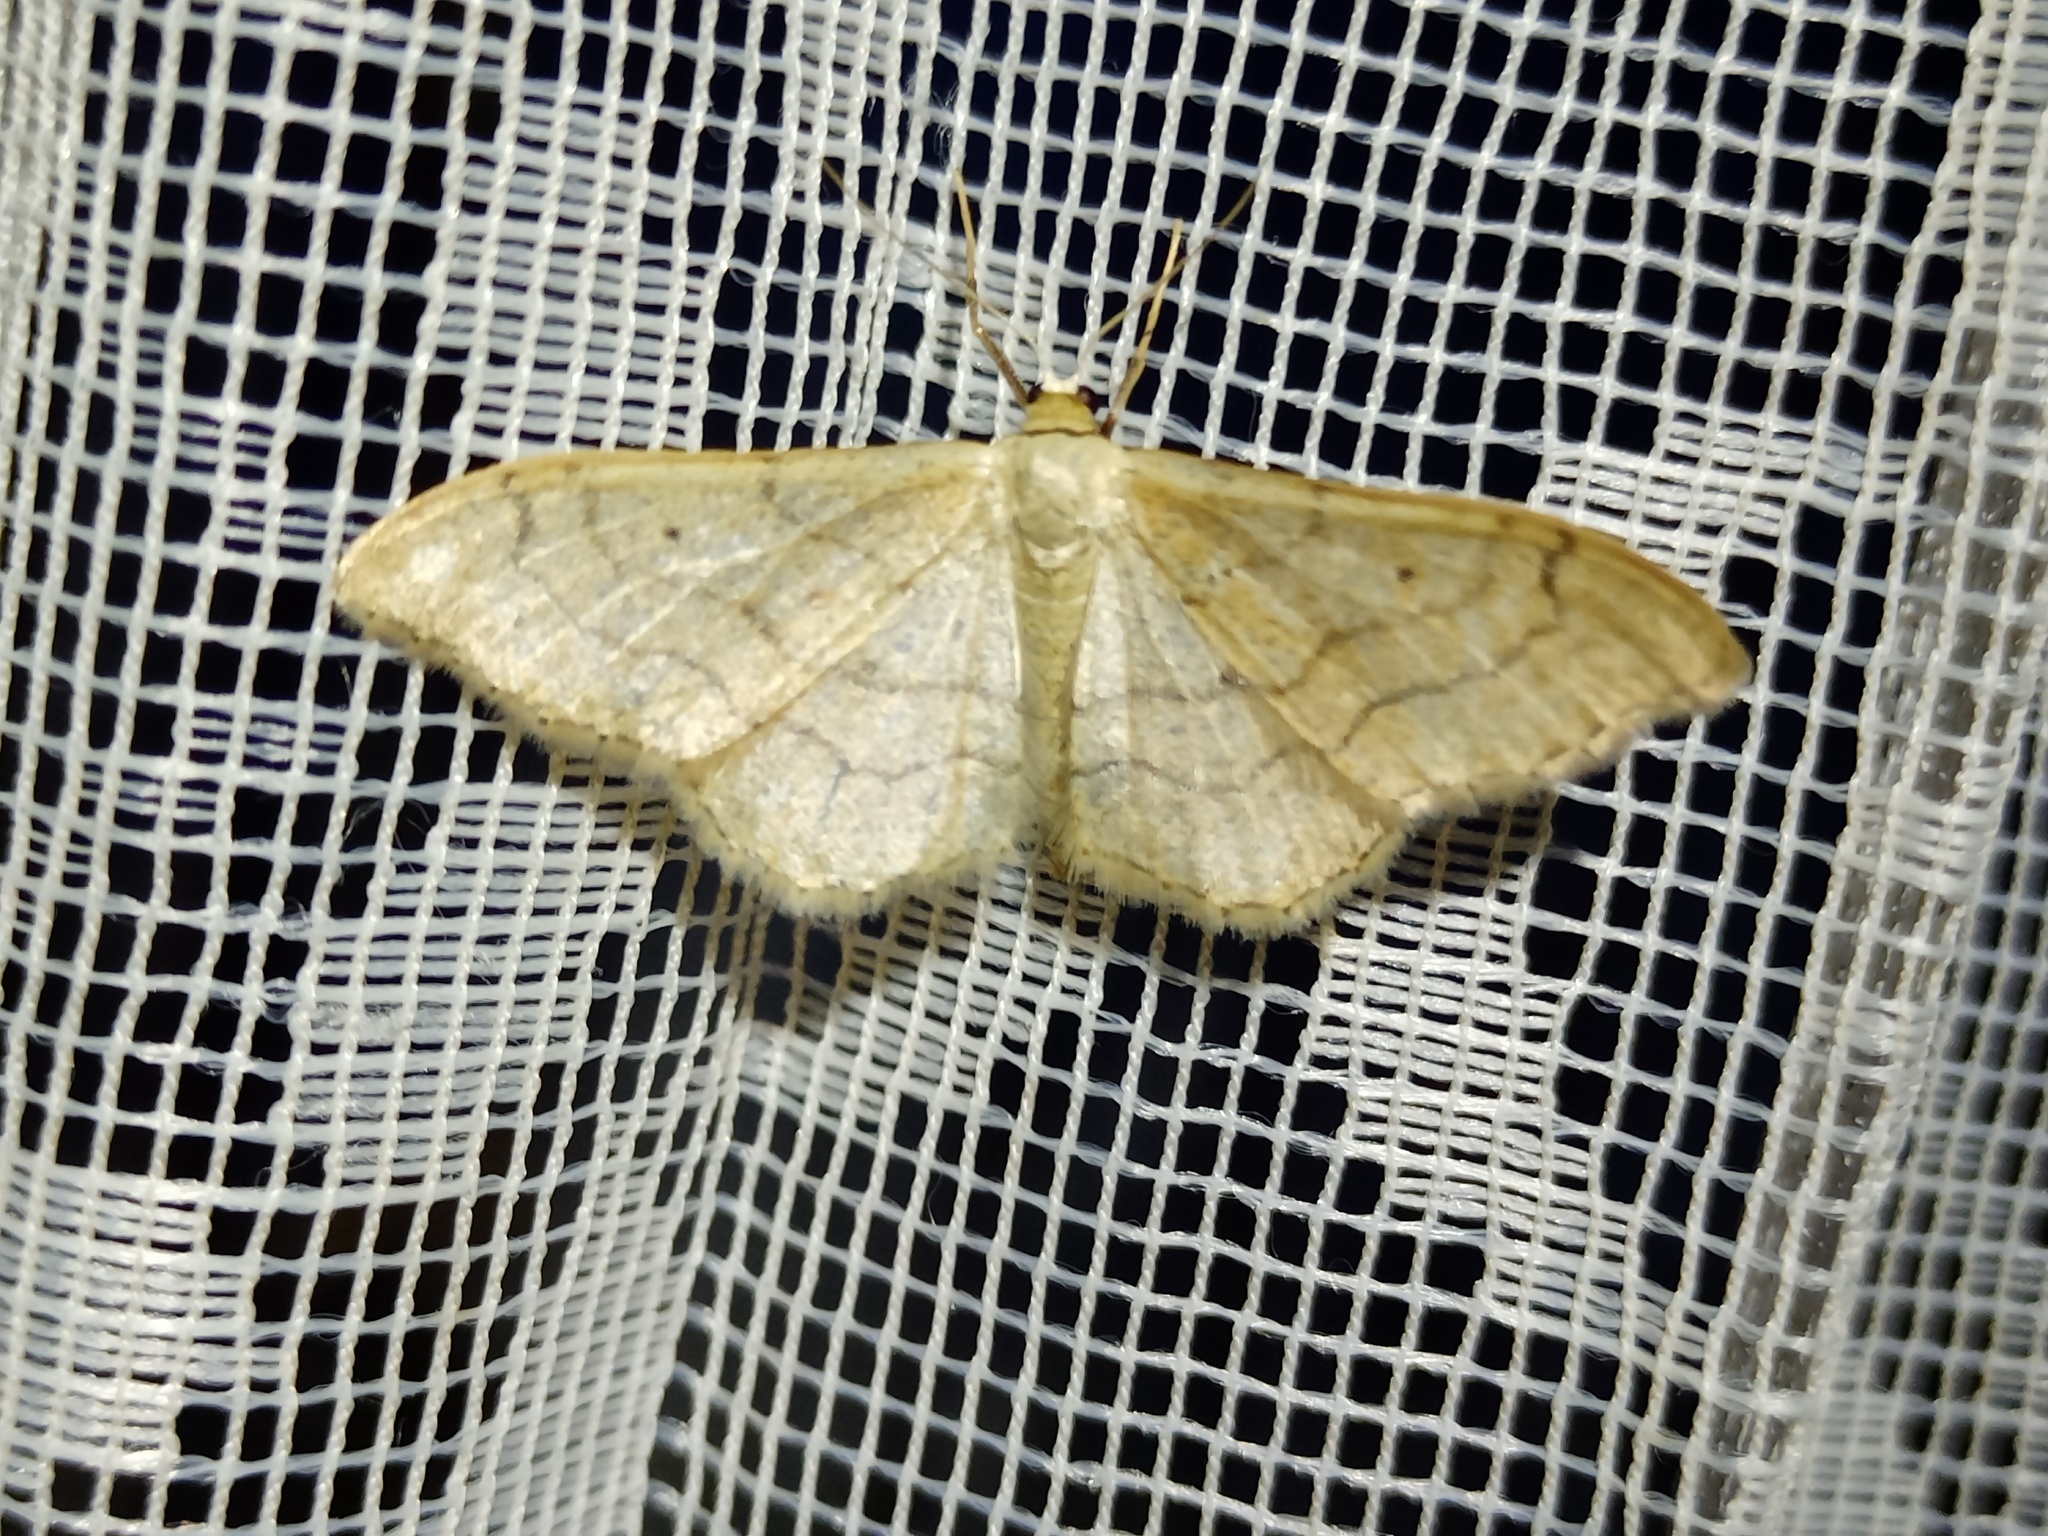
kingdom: Animalia
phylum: Arthropoda
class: Insecta
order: Lepidoptera
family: Geometridae
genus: Idaea
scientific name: Idaea aversata
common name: Riband wave
